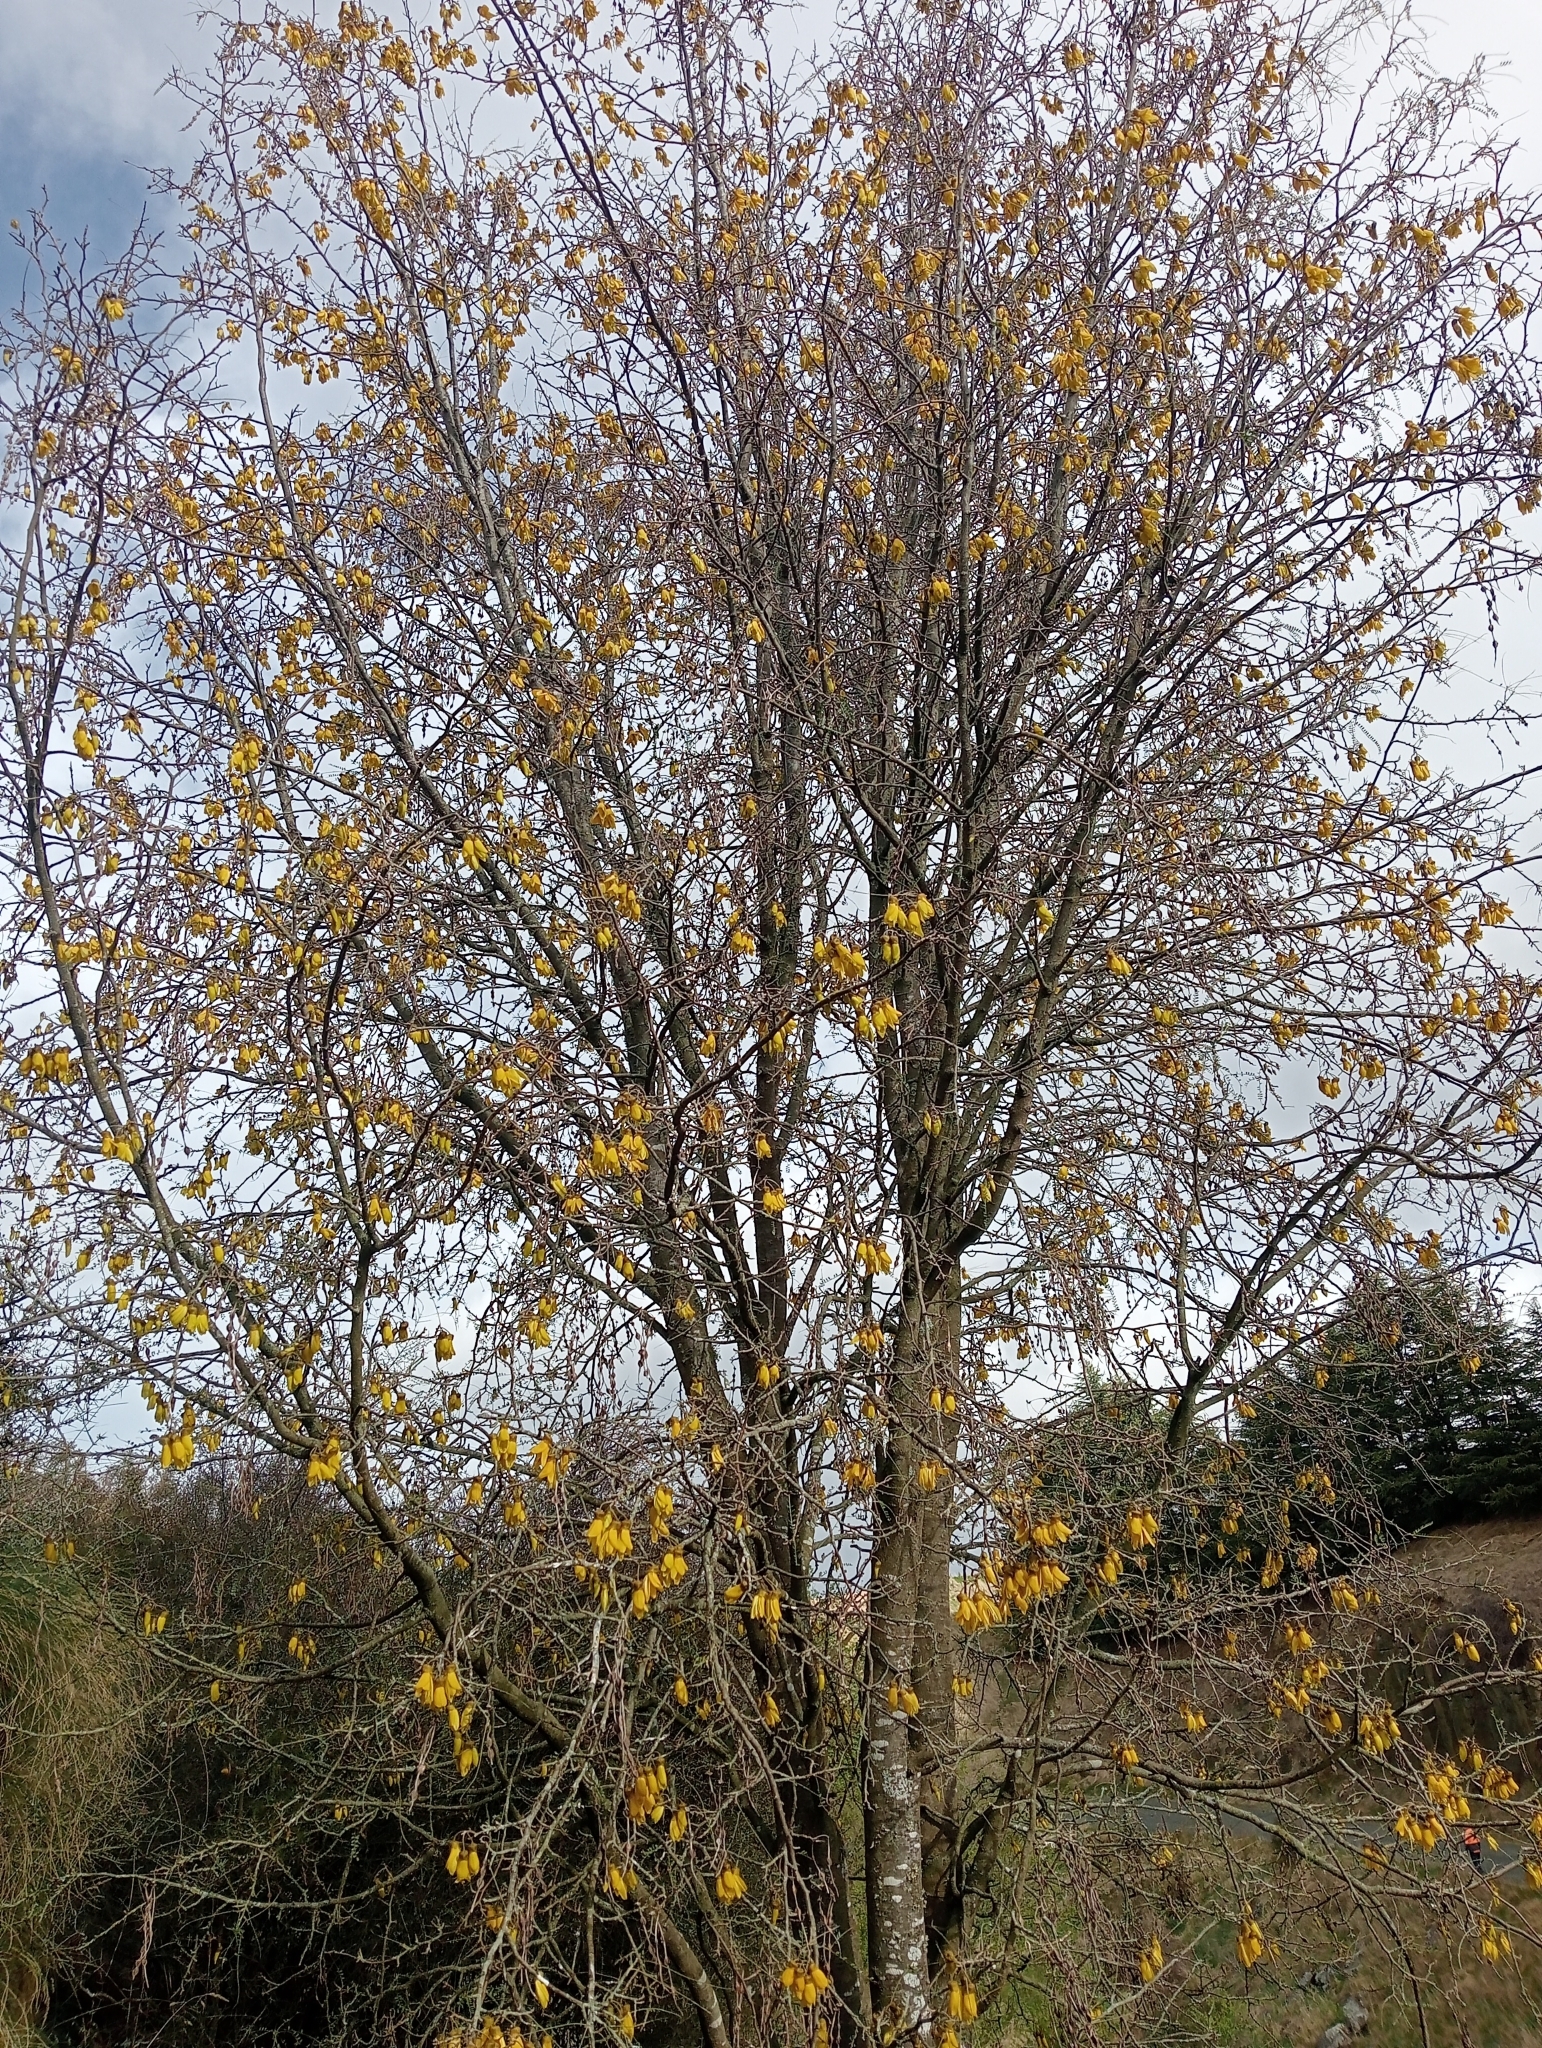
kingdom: Plantae
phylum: Tracheophyta
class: Magnoliopsida
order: Fabales
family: Fabaceae
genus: Sophora
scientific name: Sophora microphylla
